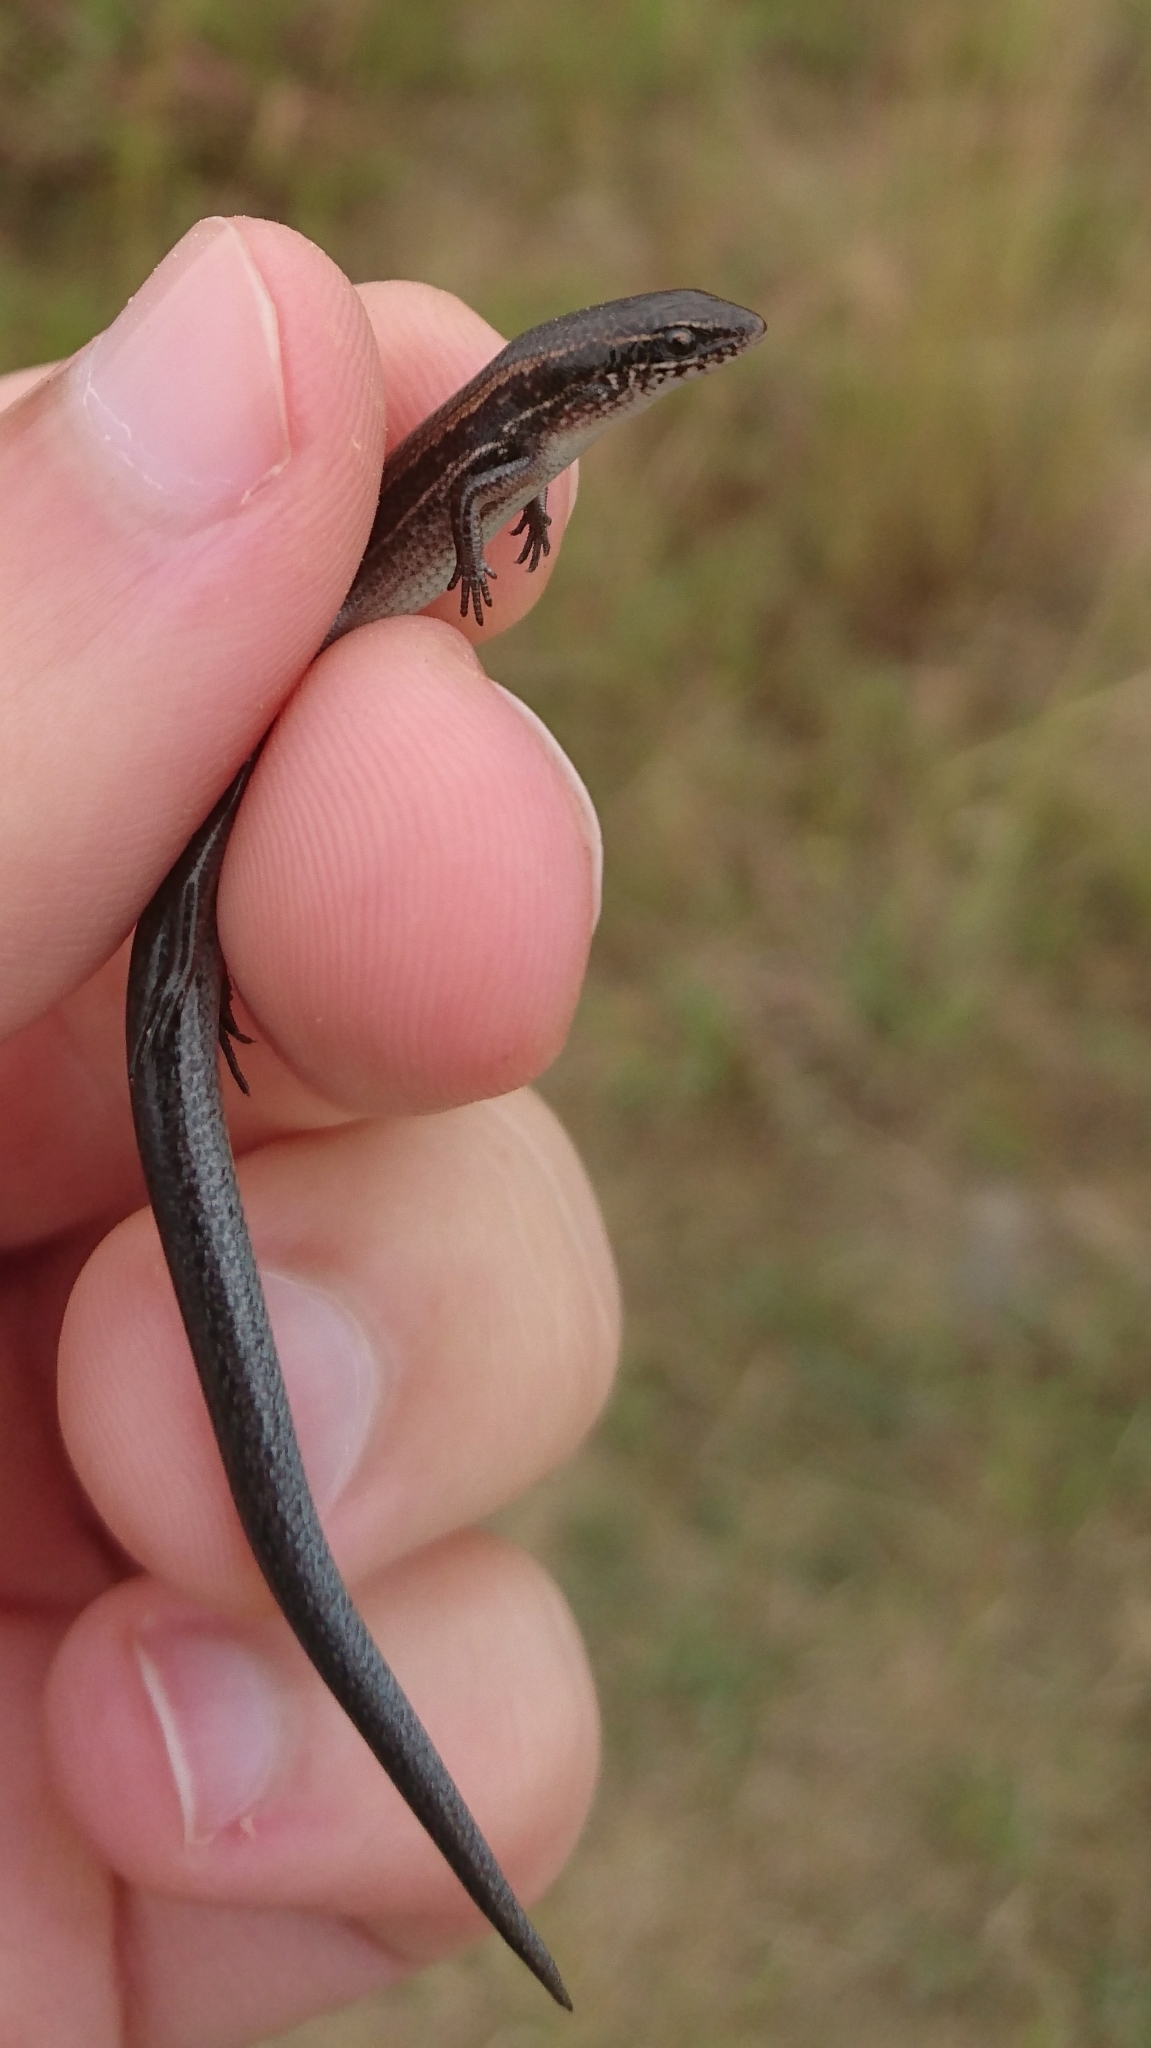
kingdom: Animalia
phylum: Chordata
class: Squamata
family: Scincidae
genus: Panaspis
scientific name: Panaspis wahlbergii
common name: Angolan snake-eyed skink
